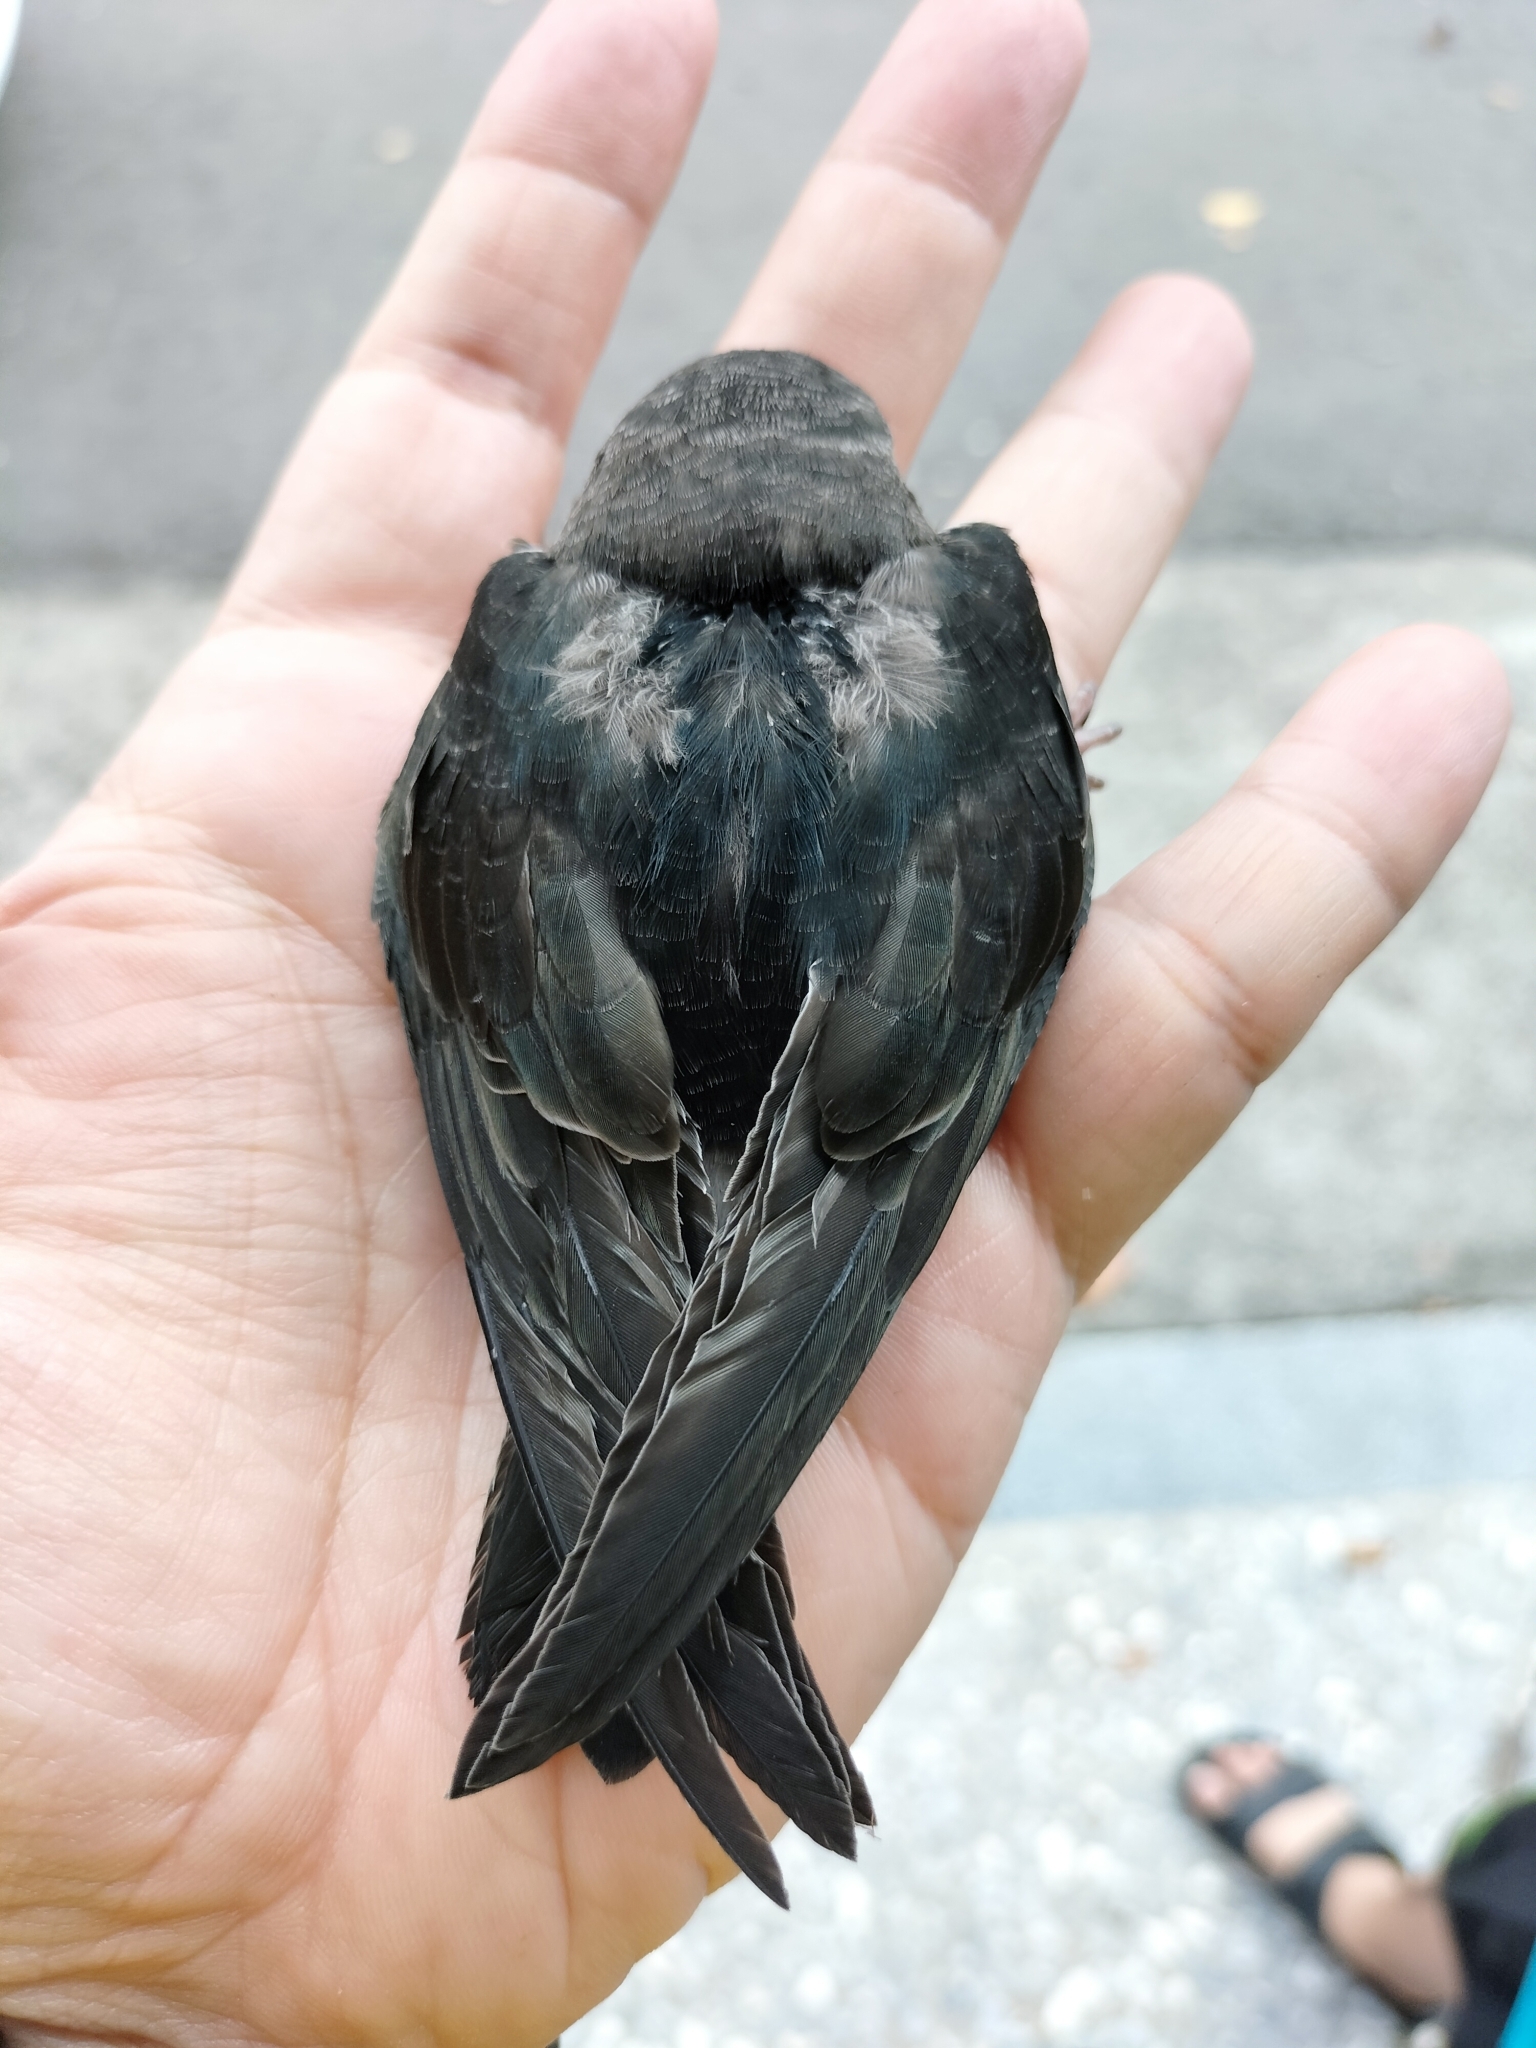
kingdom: Animalia
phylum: Chordata
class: Aves
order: Apodiformes
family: Apodidae
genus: Apus
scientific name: Apus nipalensis
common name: House swift
